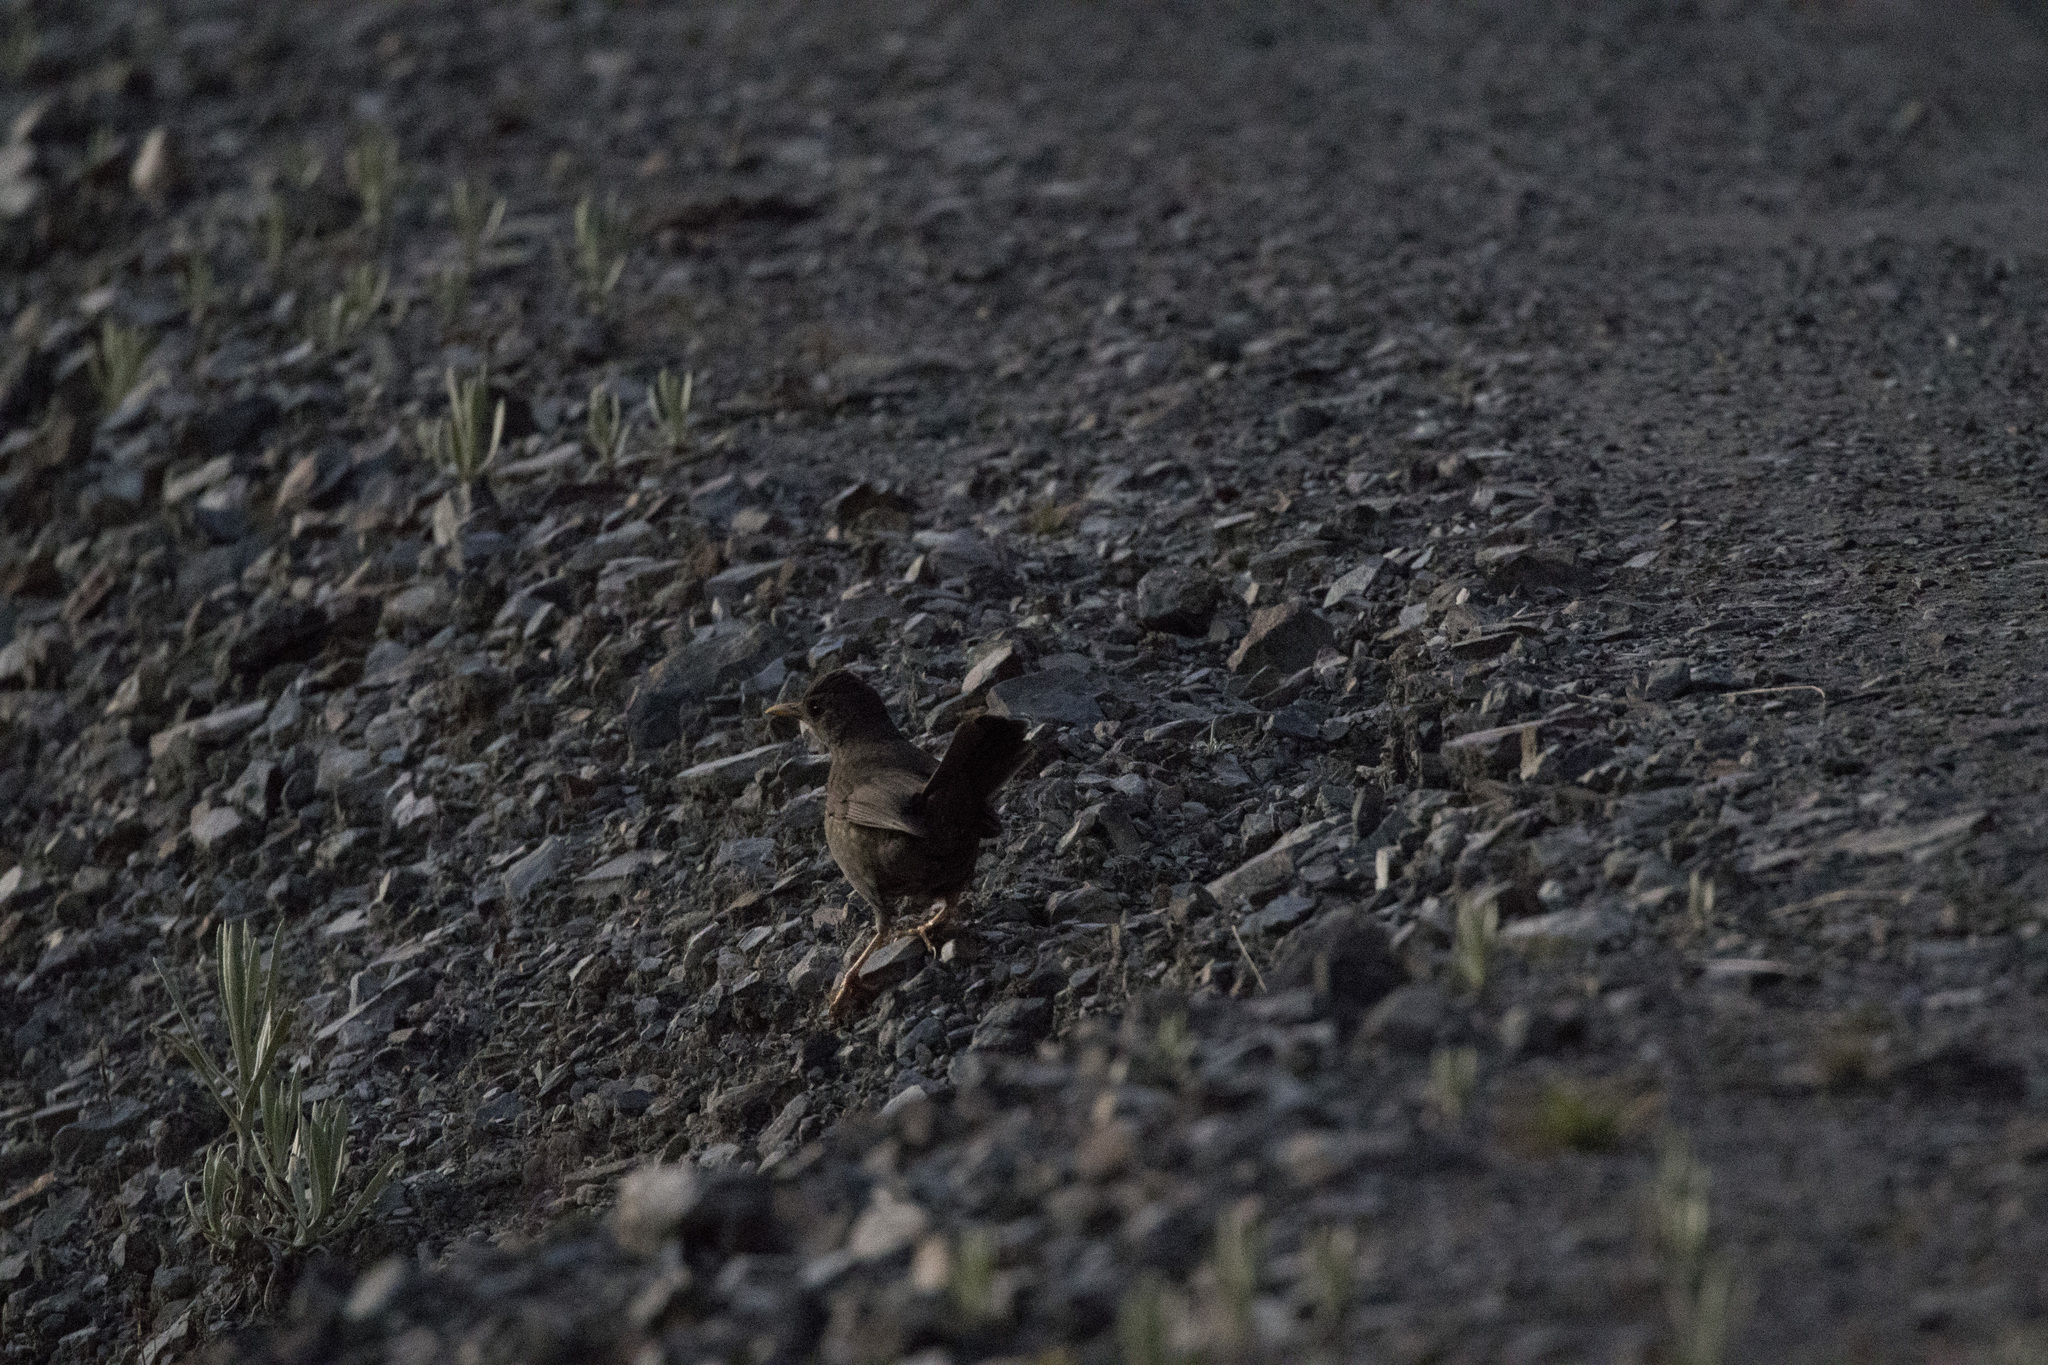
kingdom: Animalia
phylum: Chordata
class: Aves
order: Passeriformes
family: Turdidae
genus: Turdus
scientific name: Turdus chiguanco
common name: Chiguanco thrush
